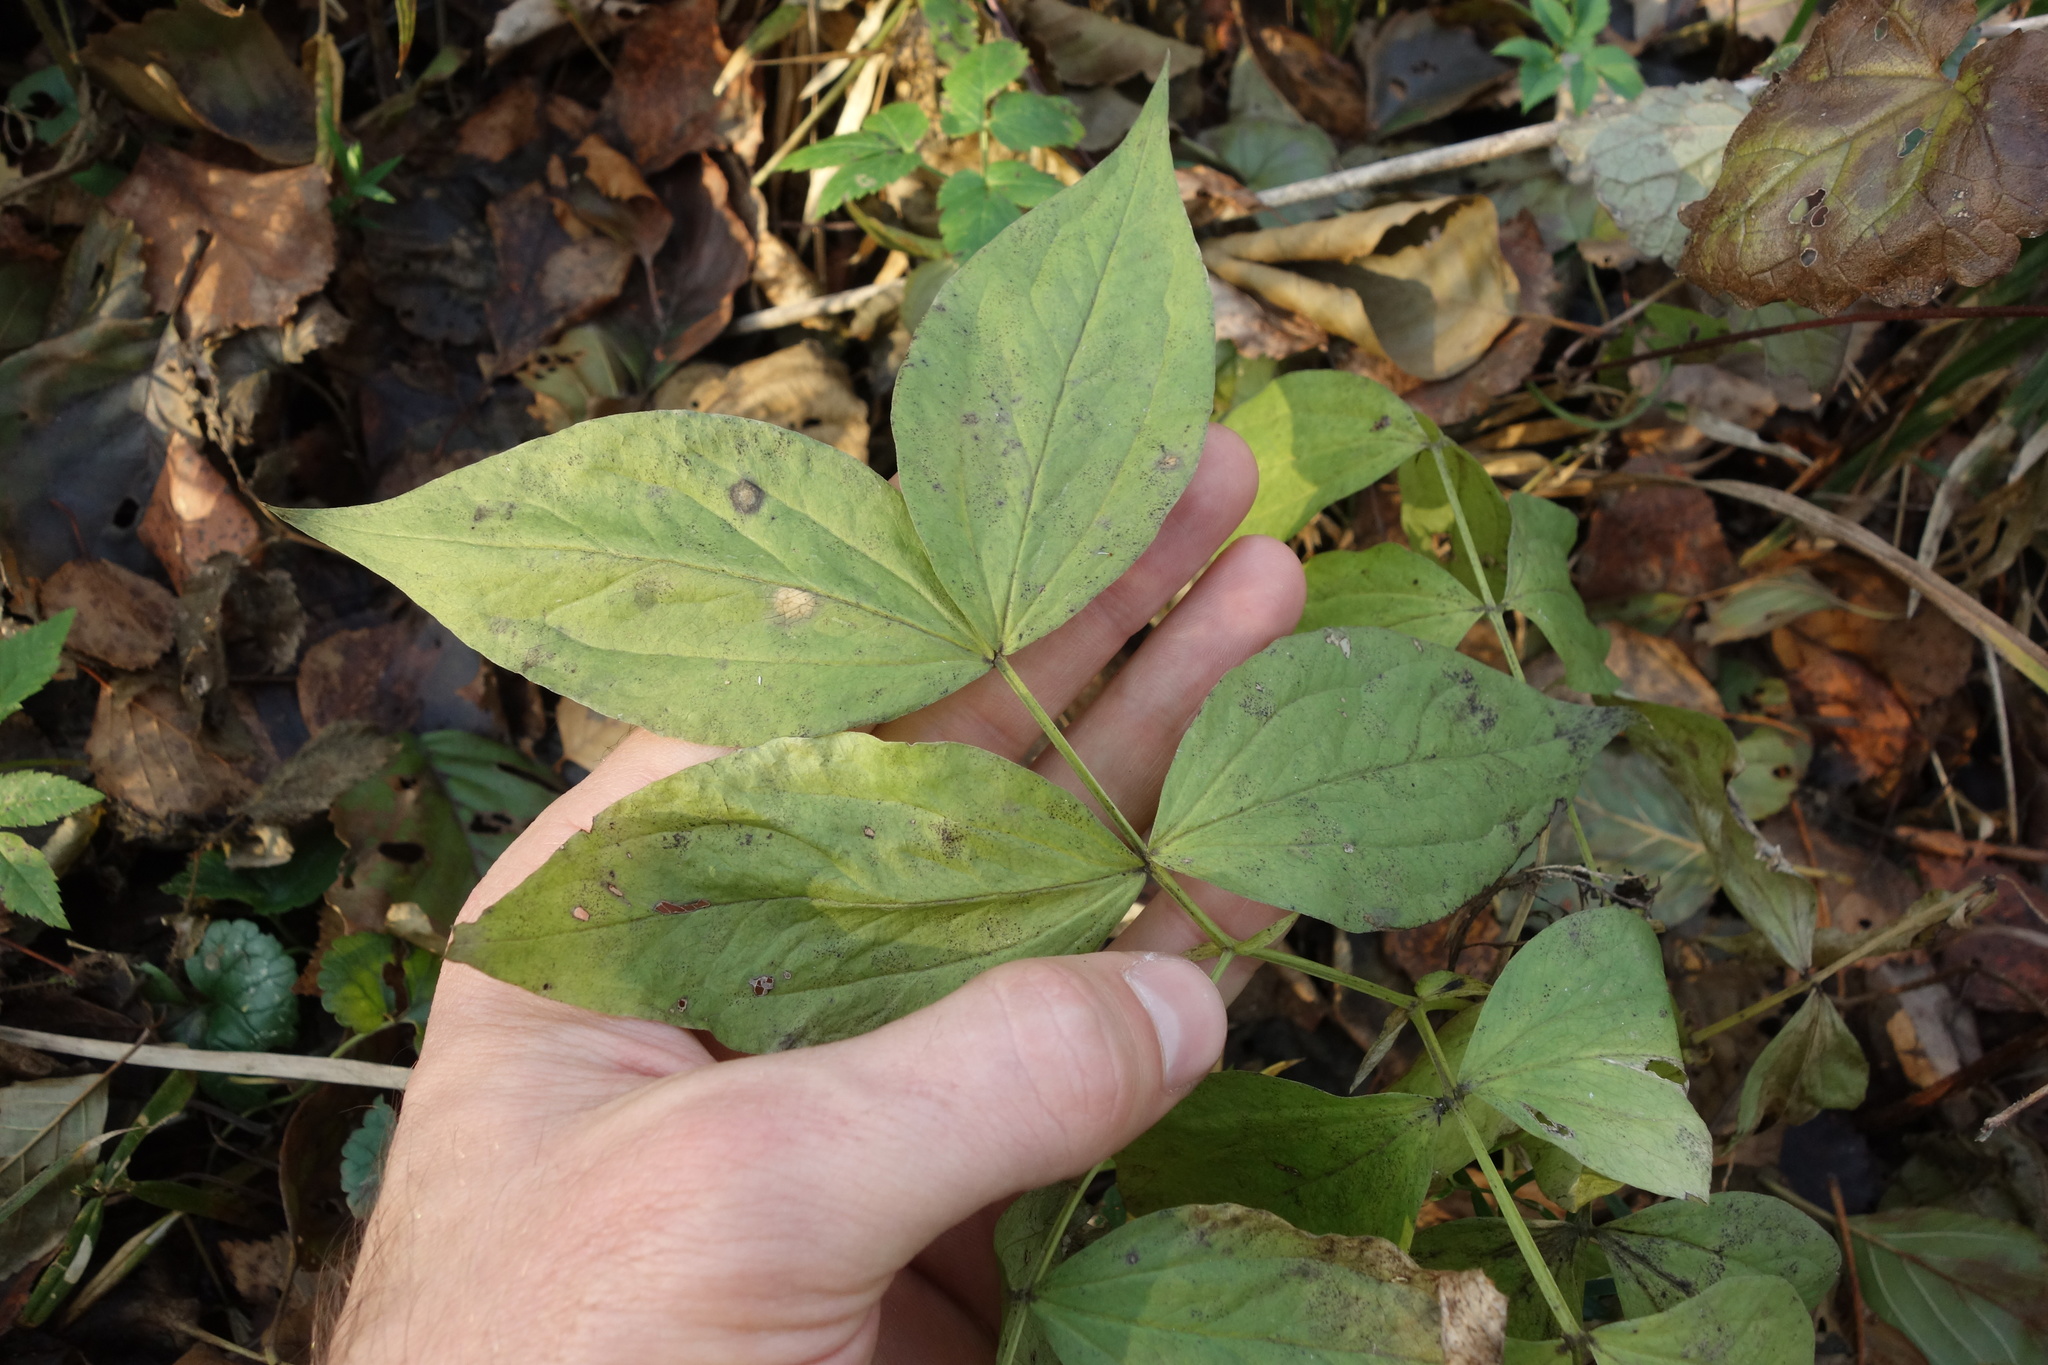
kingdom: Plantae
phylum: Tracheophyta
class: Magnoliopsida
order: Fabales
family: Fabaceae
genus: Lathyrus
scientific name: Lathyrus vernus
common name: Spring pea
